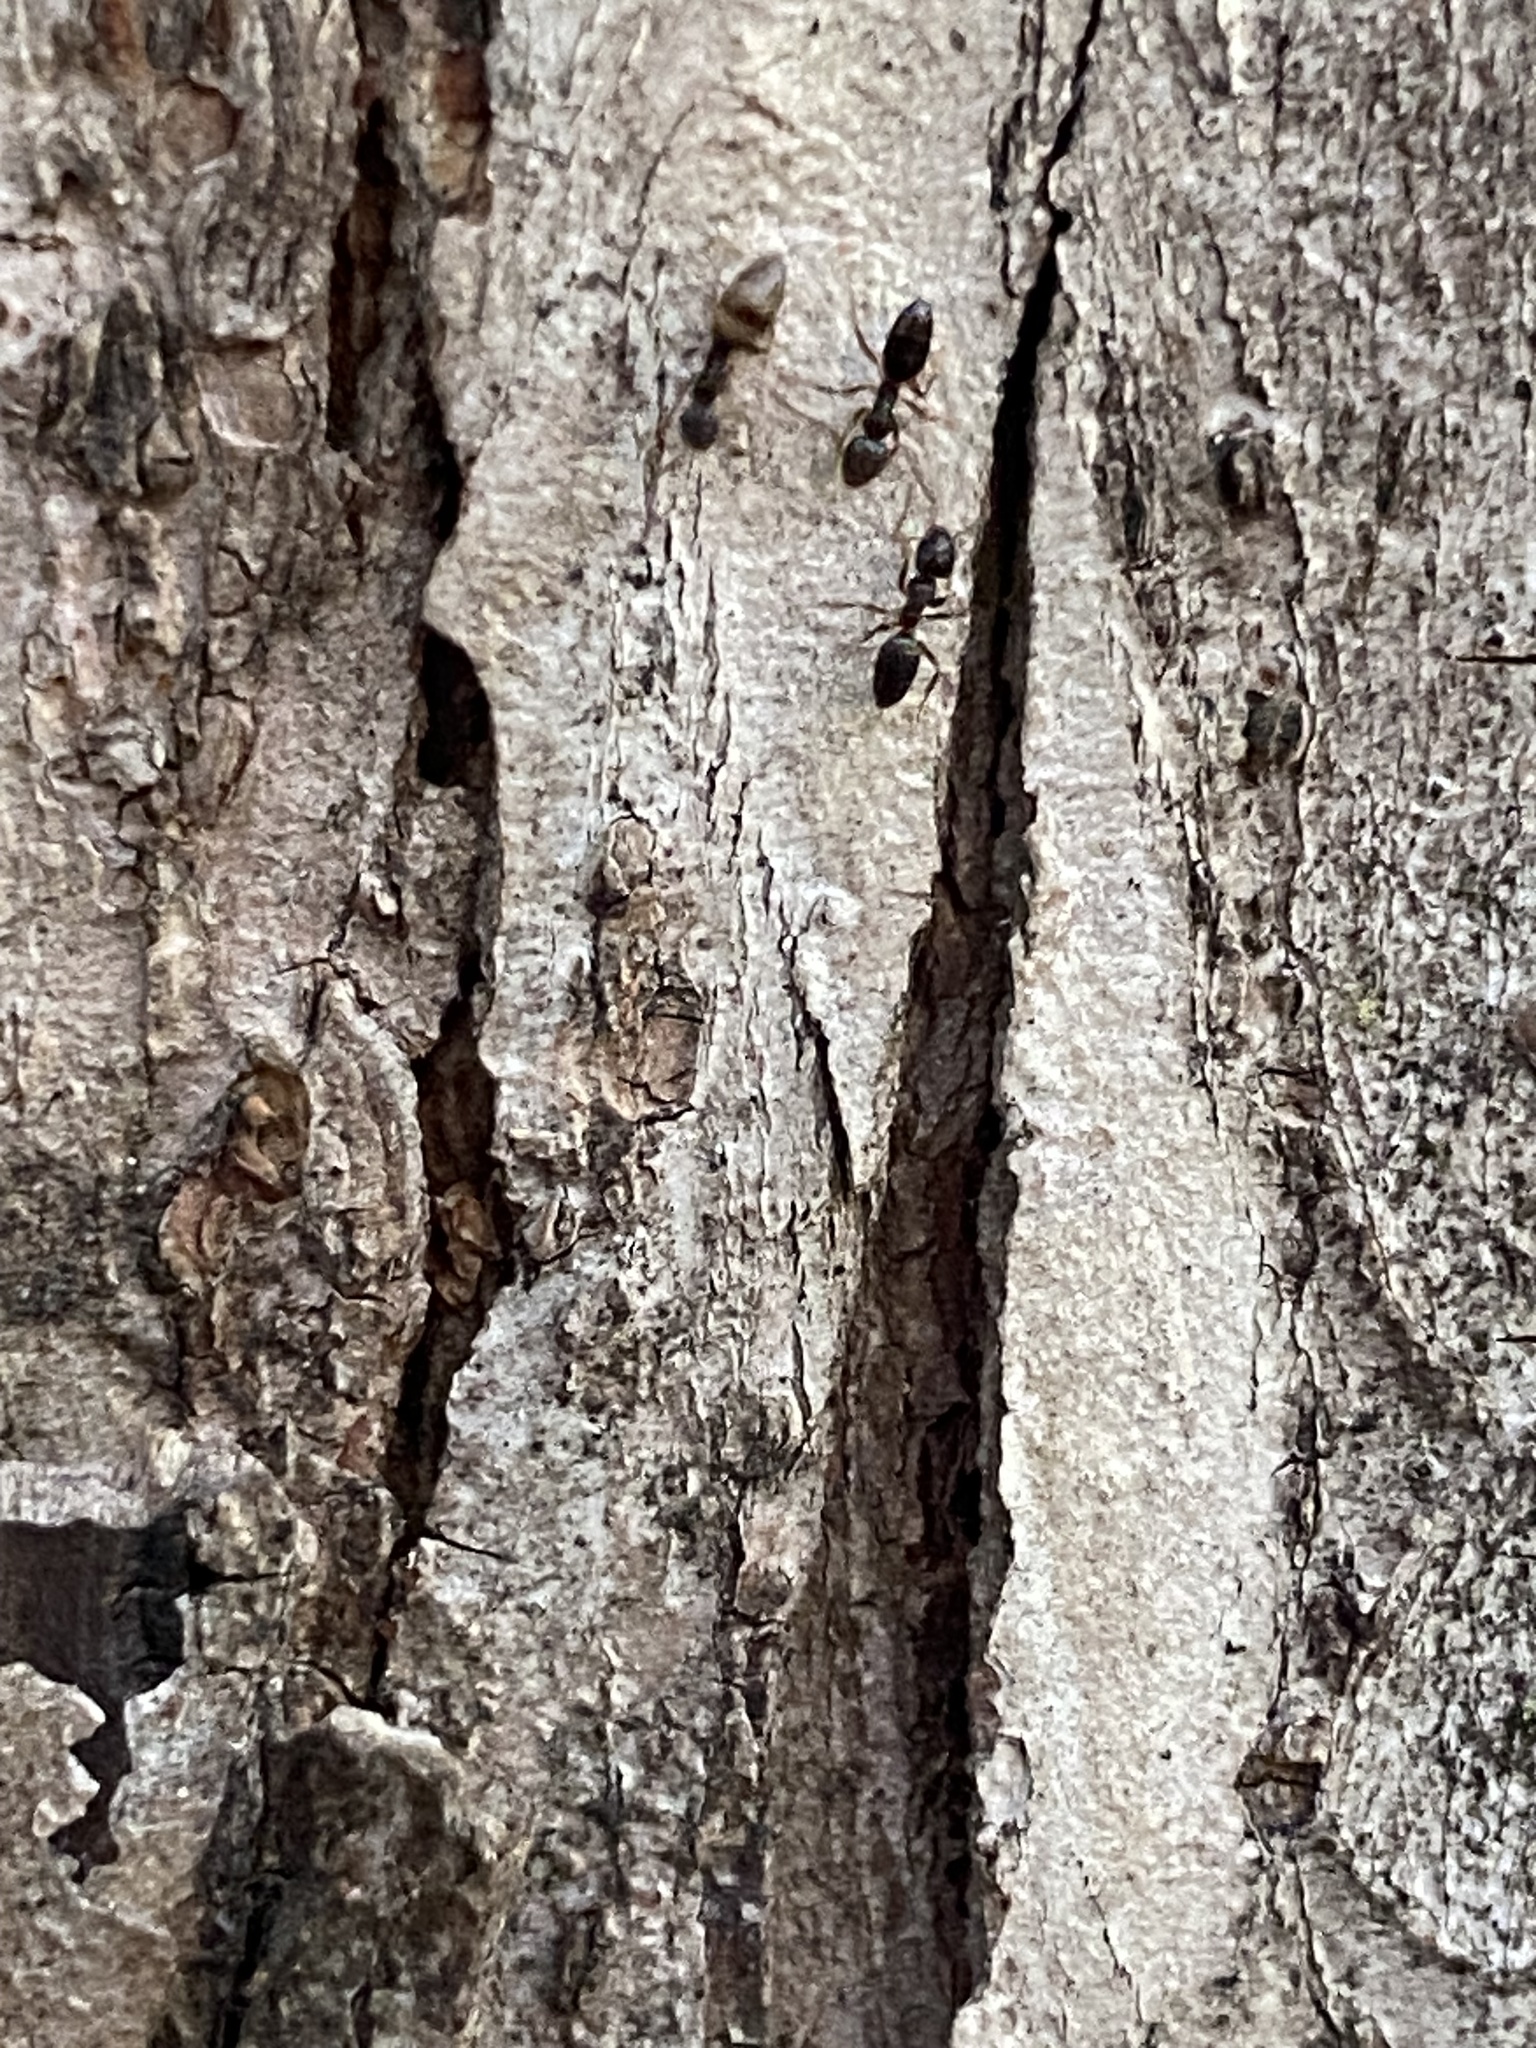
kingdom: Animalia
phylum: Arthropoda
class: Insecta
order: Hymenoptera
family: Formicidae
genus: Tapinoma
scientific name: Tapinoma sessile
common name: Odorous house ant
